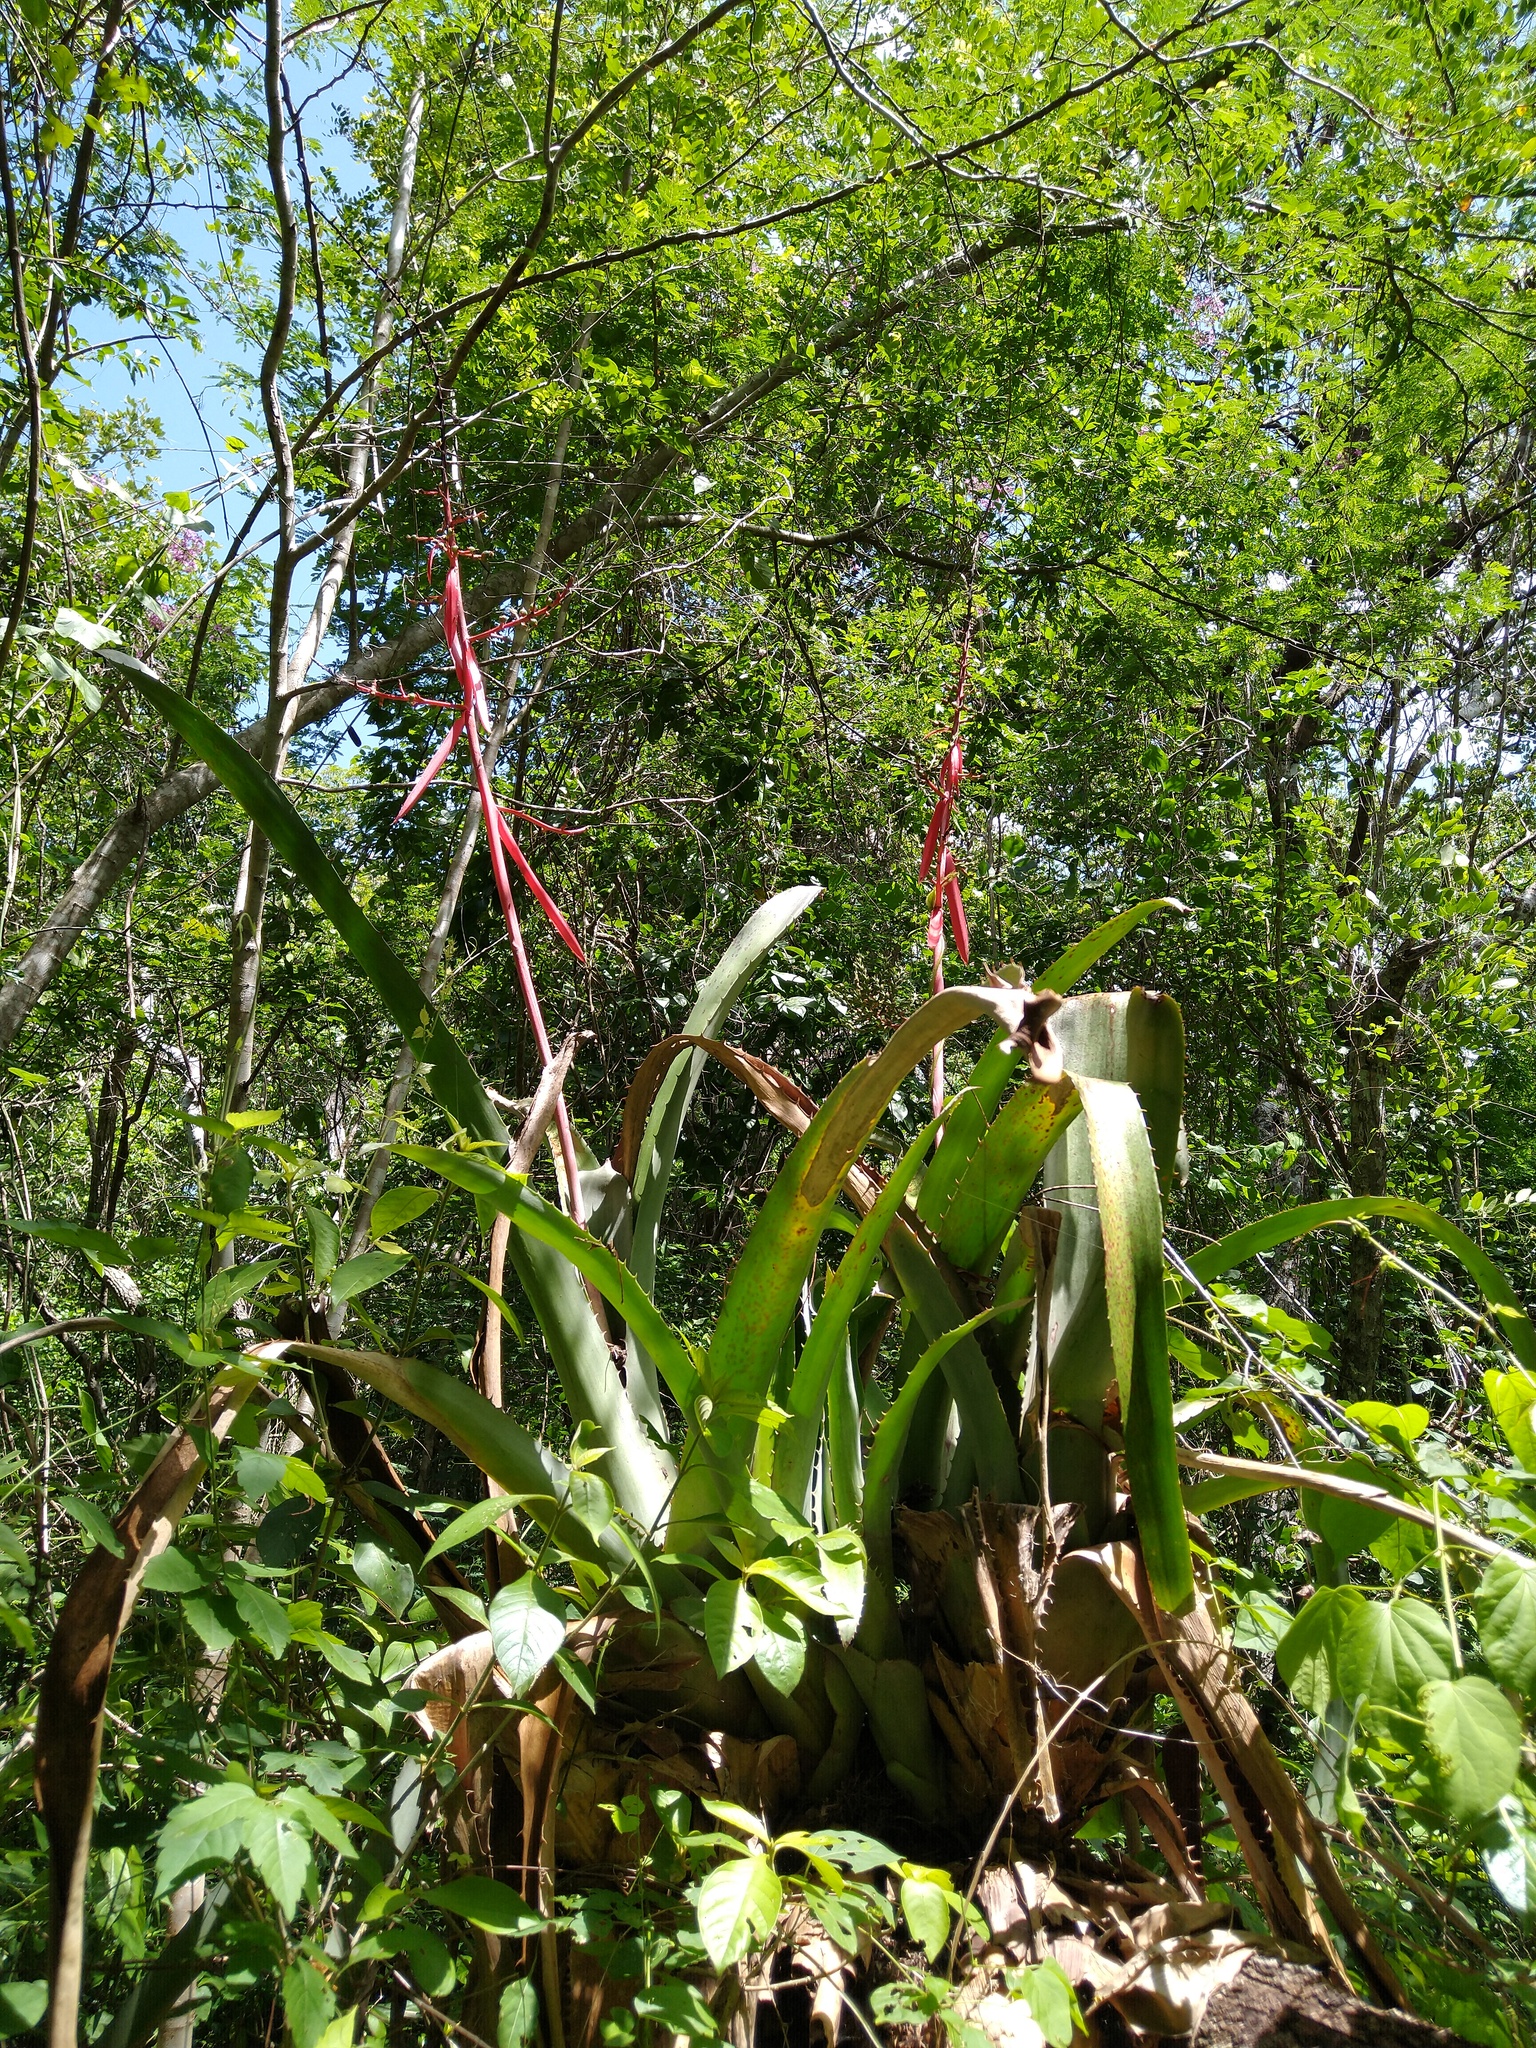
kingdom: Plantae
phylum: Tracheophyta
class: Liliopsida
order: Poales
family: Bromeliaceae
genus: Aechmea
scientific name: Aechmea bracteata
